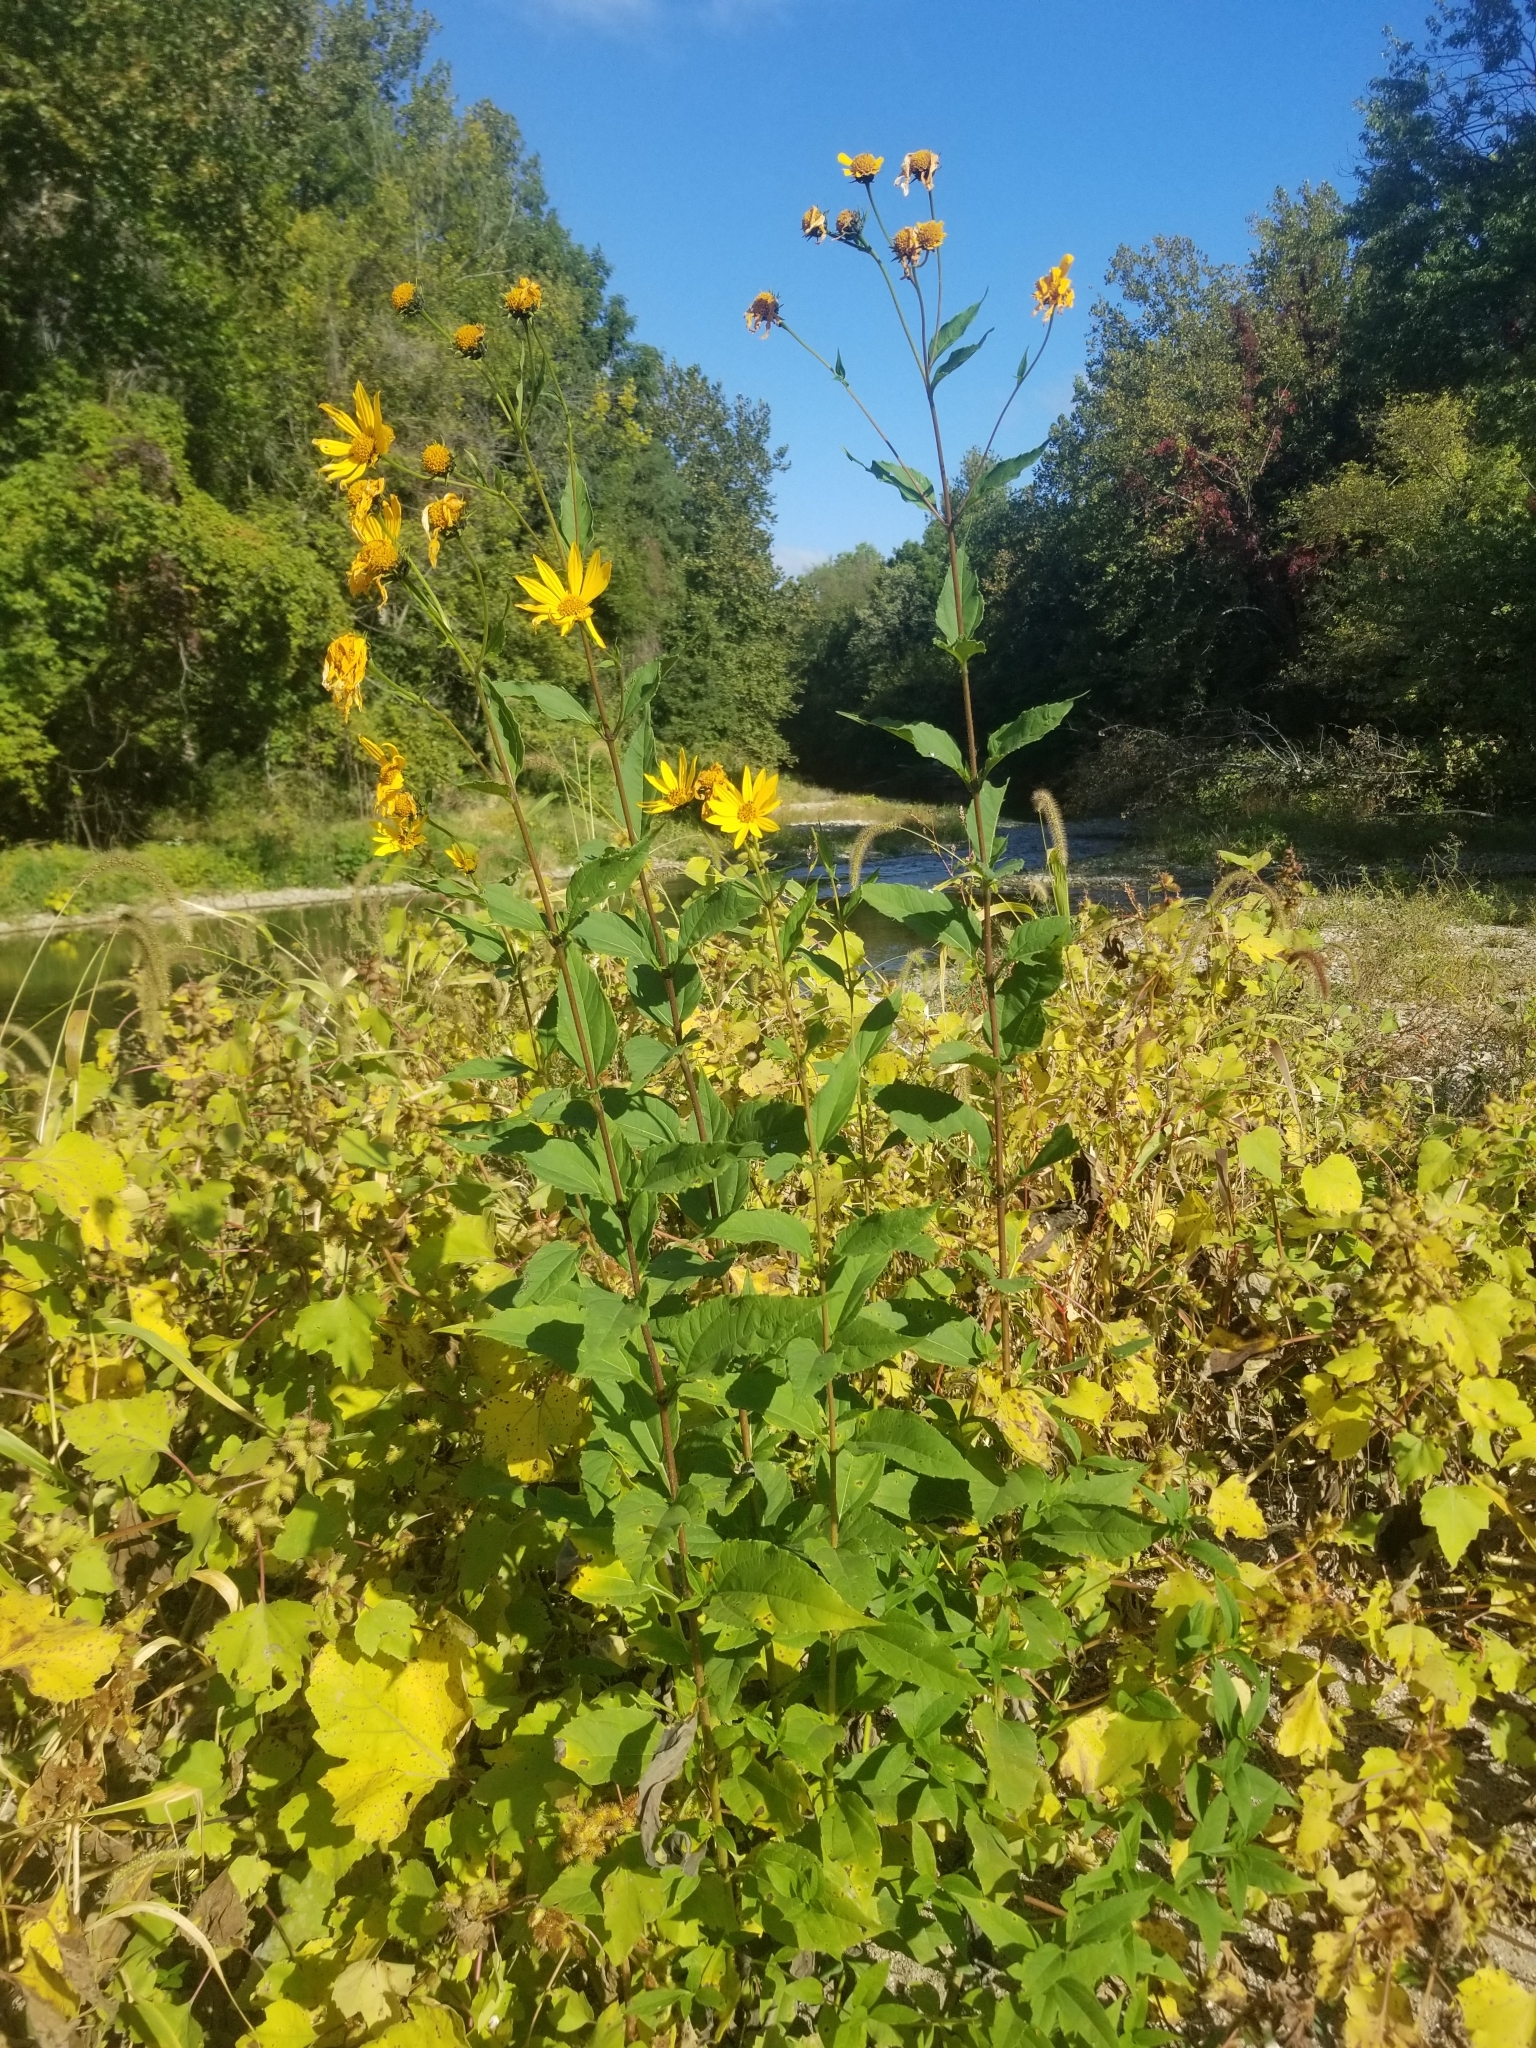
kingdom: Plantae
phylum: Tracheophyta
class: Magnoliopsida
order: Asterales
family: Asteraceae
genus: Helianthus
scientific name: Helianthus tuberosus
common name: Jerusalem artichoke
